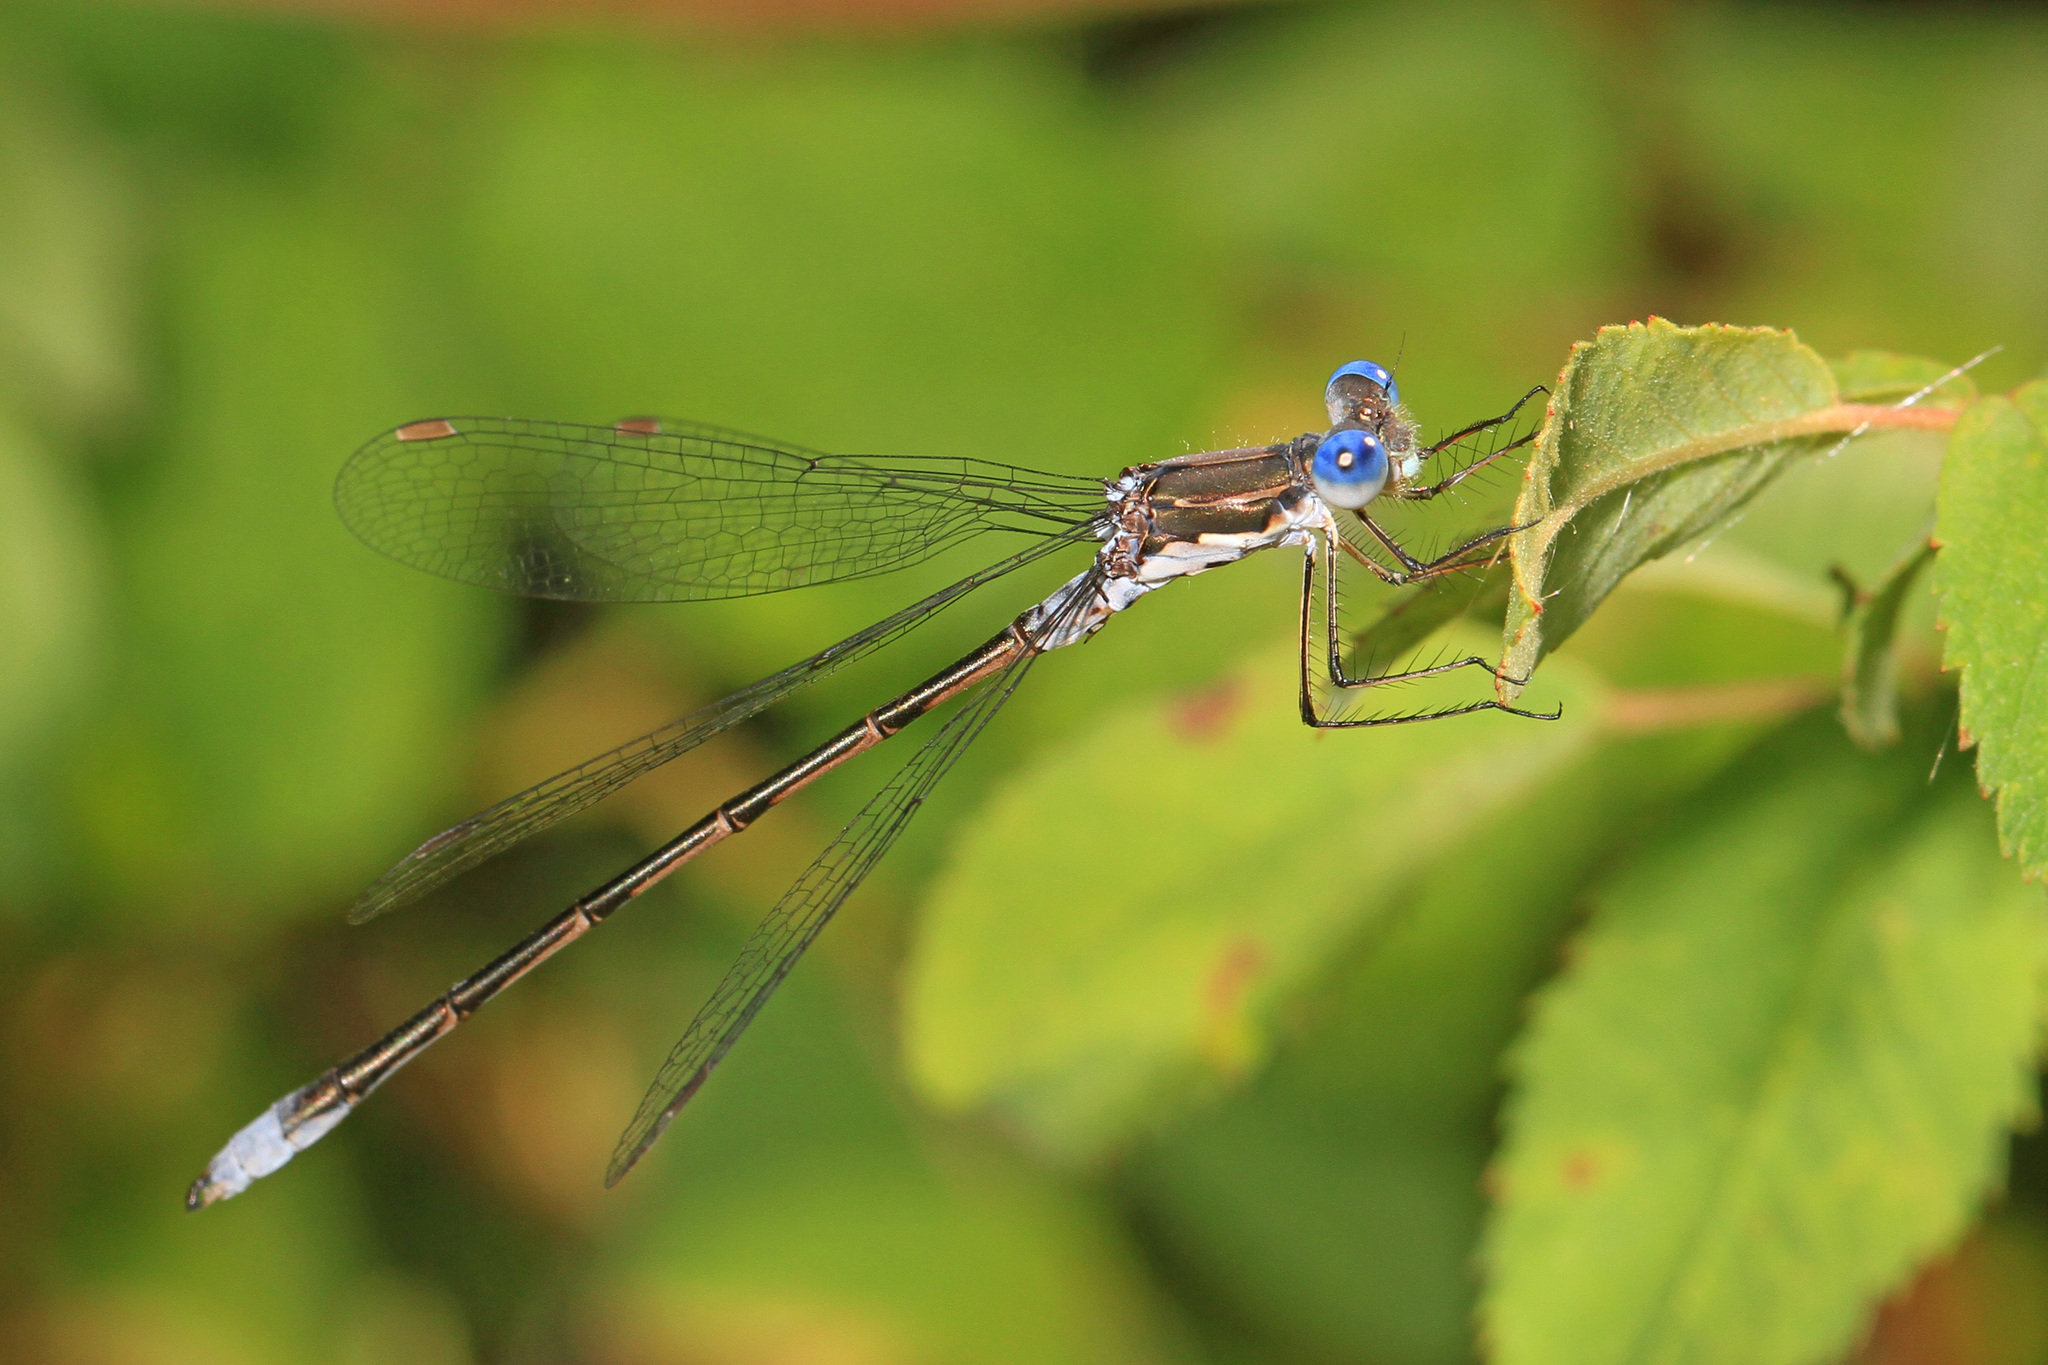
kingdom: Animalia
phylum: Arthropoda
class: Insecta
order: Odonata
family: Lestidae
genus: Lestes
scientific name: Lestes congener
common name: Spotted spreadwing
